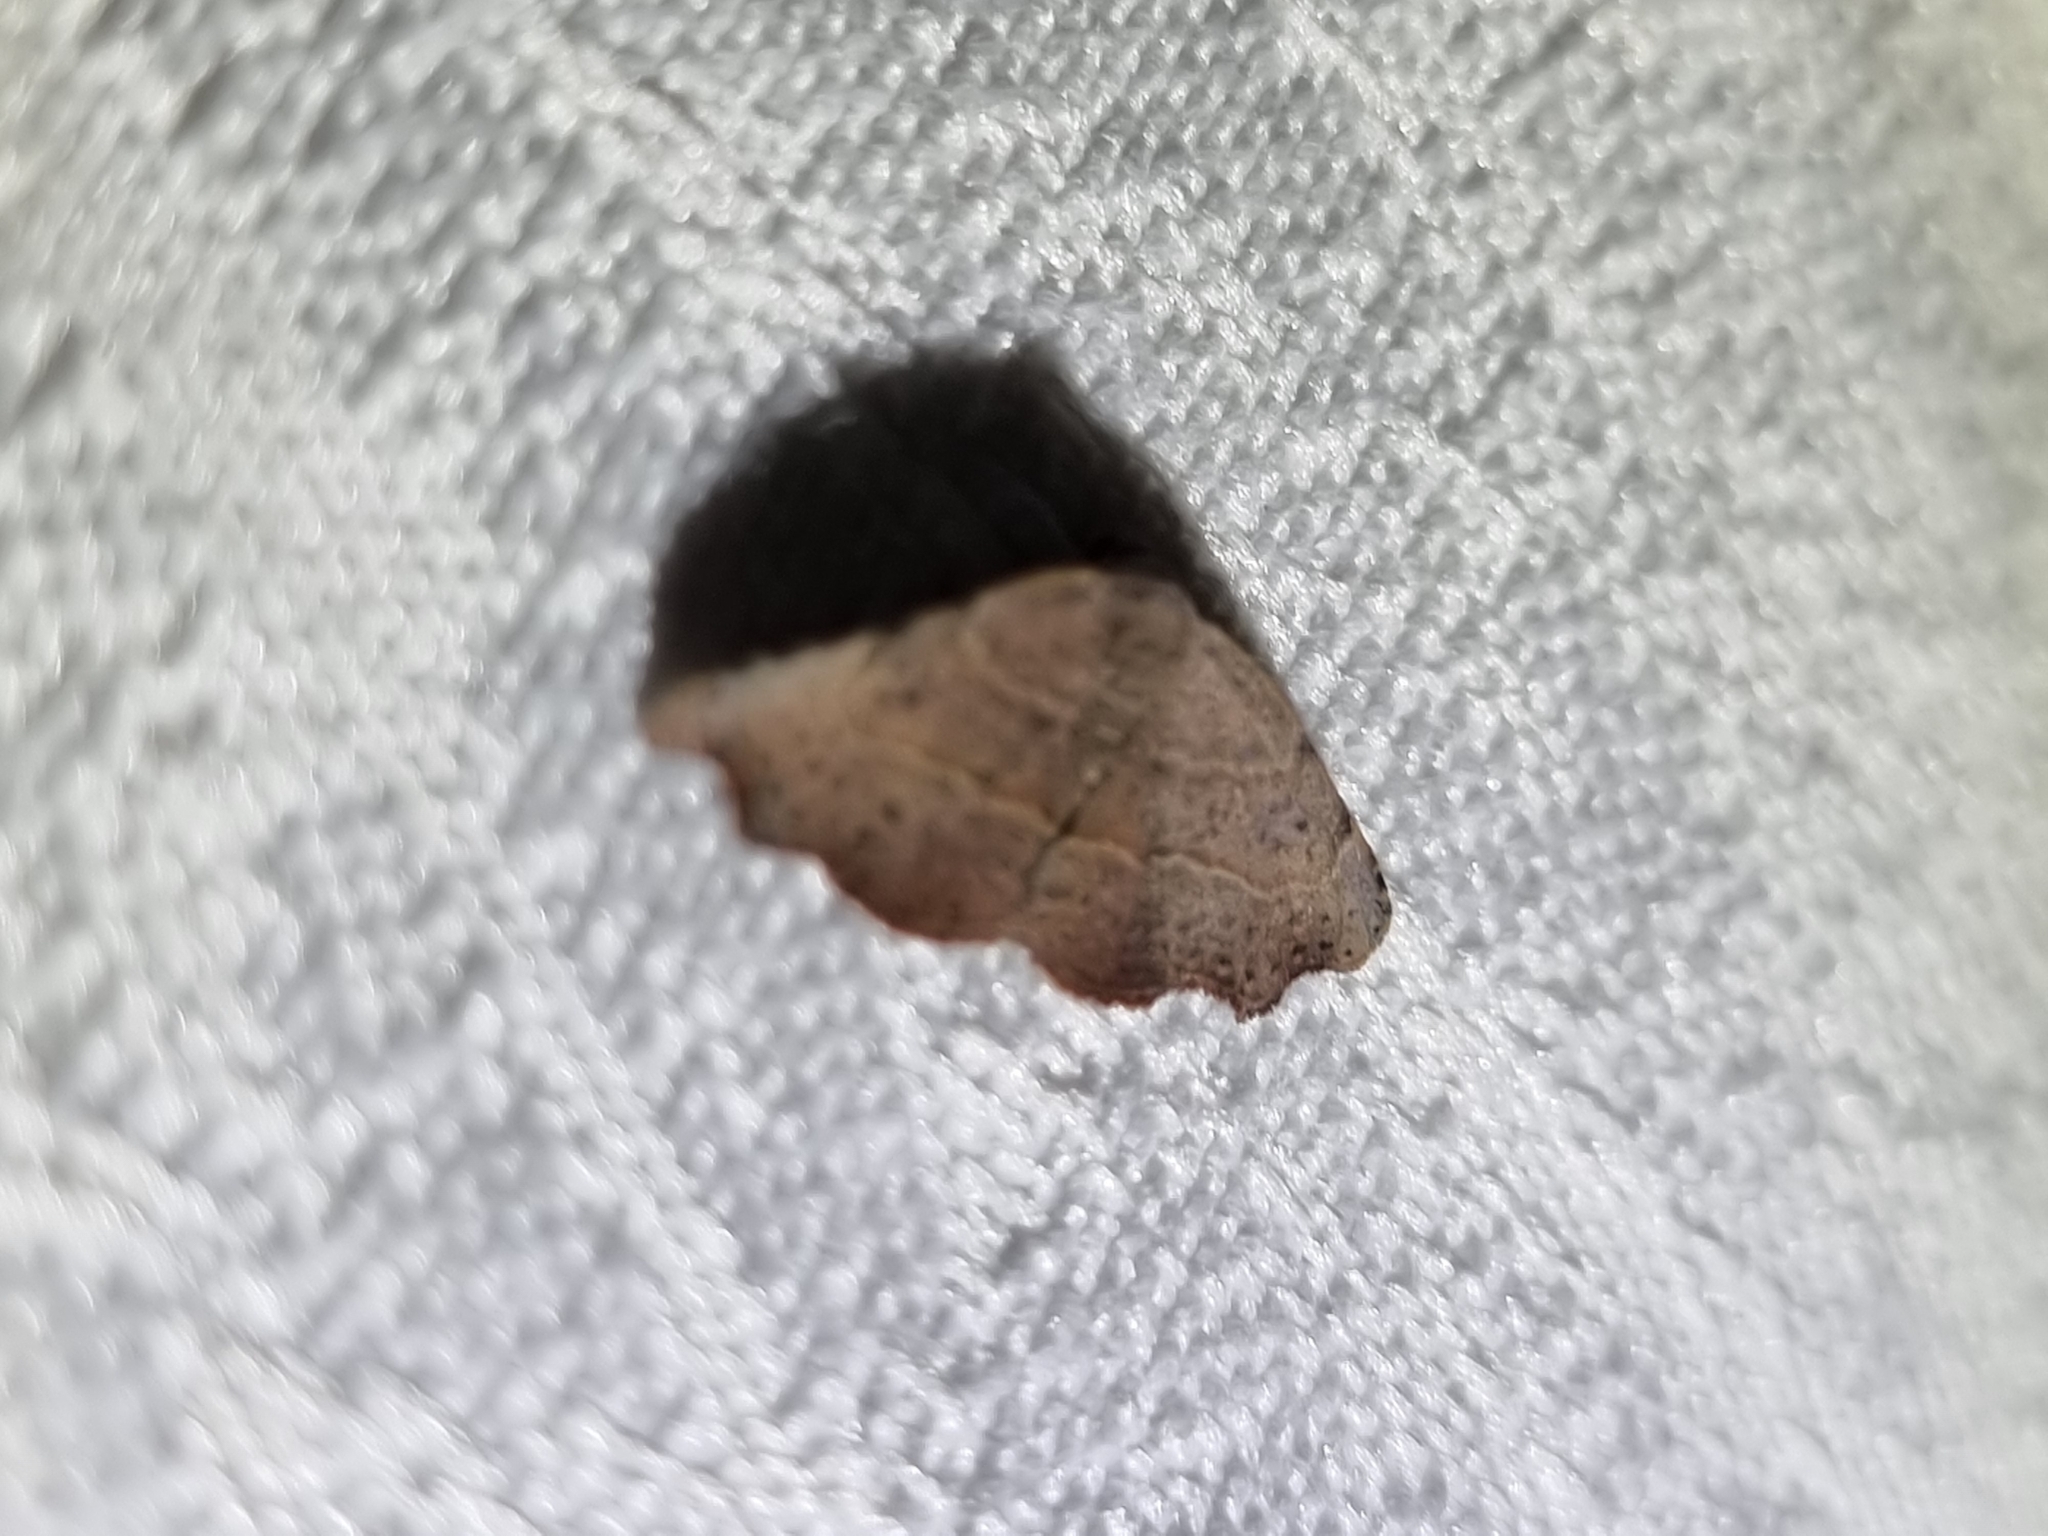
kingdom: Animalia
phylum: Arthropoda
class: Insecta
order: Lepidoptera
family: Erebidae
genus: Laspeyria
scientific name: Laspeyria concavata
